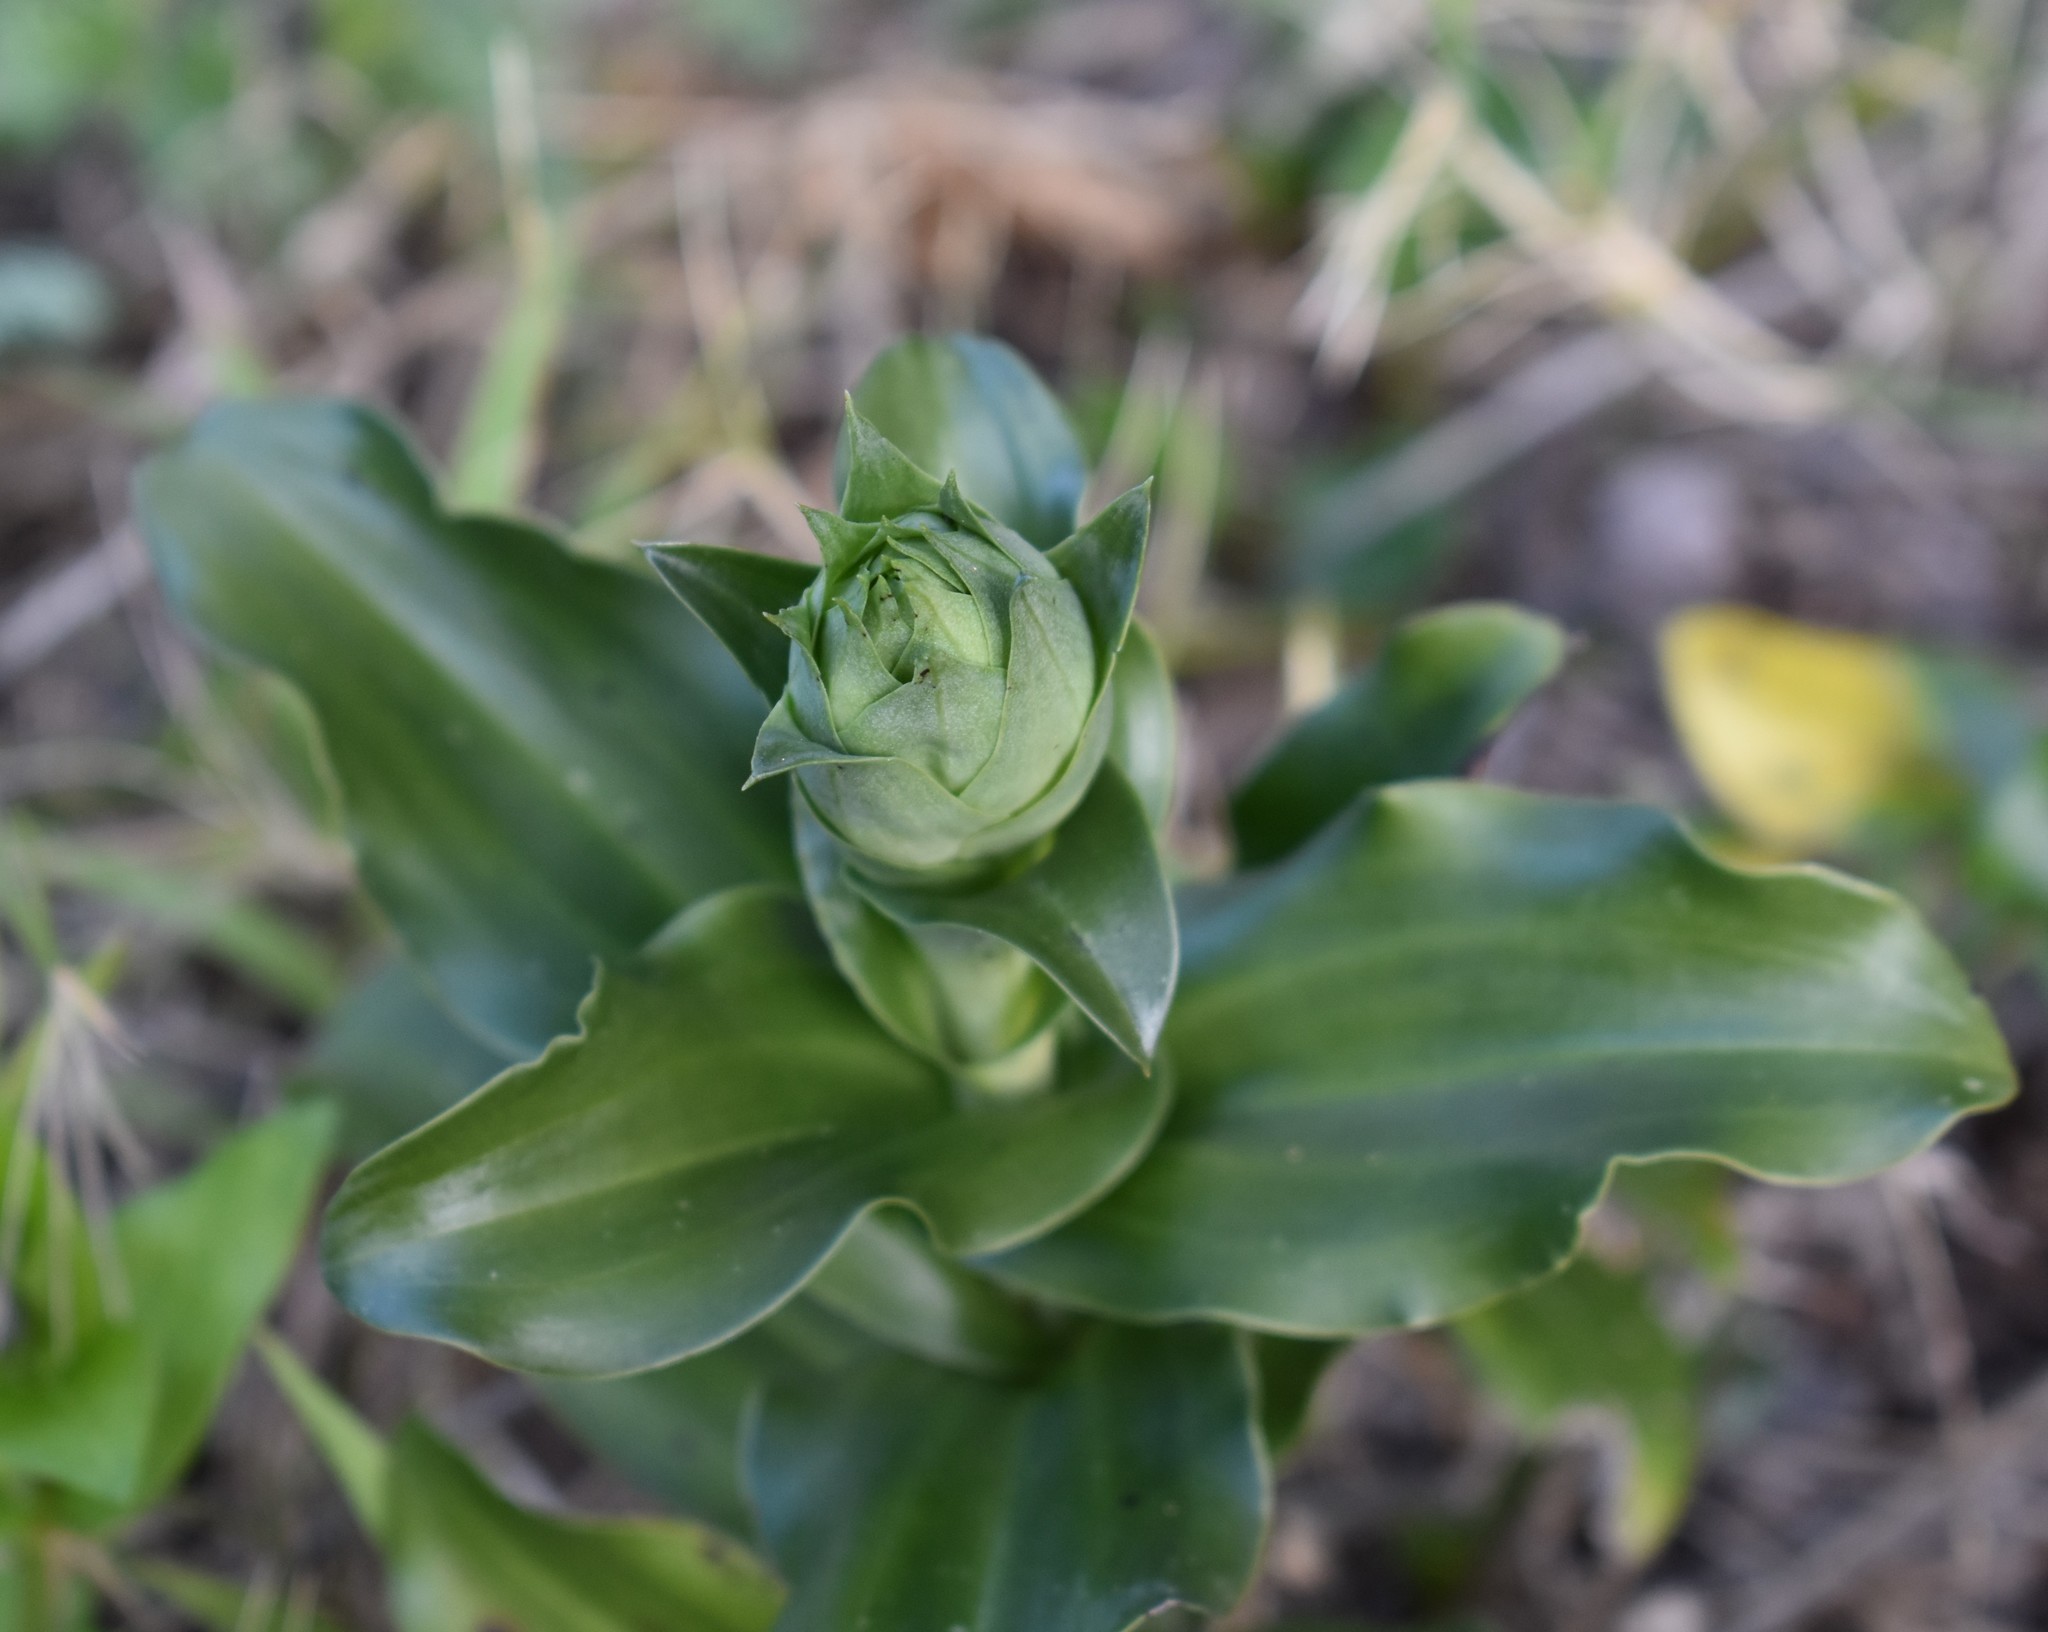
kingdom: Plantae
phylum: Tracheophyta
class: Liliopsida
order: Asparagales
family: Orchidaceae
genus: Bonatea
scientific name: Bonatea speciosa
